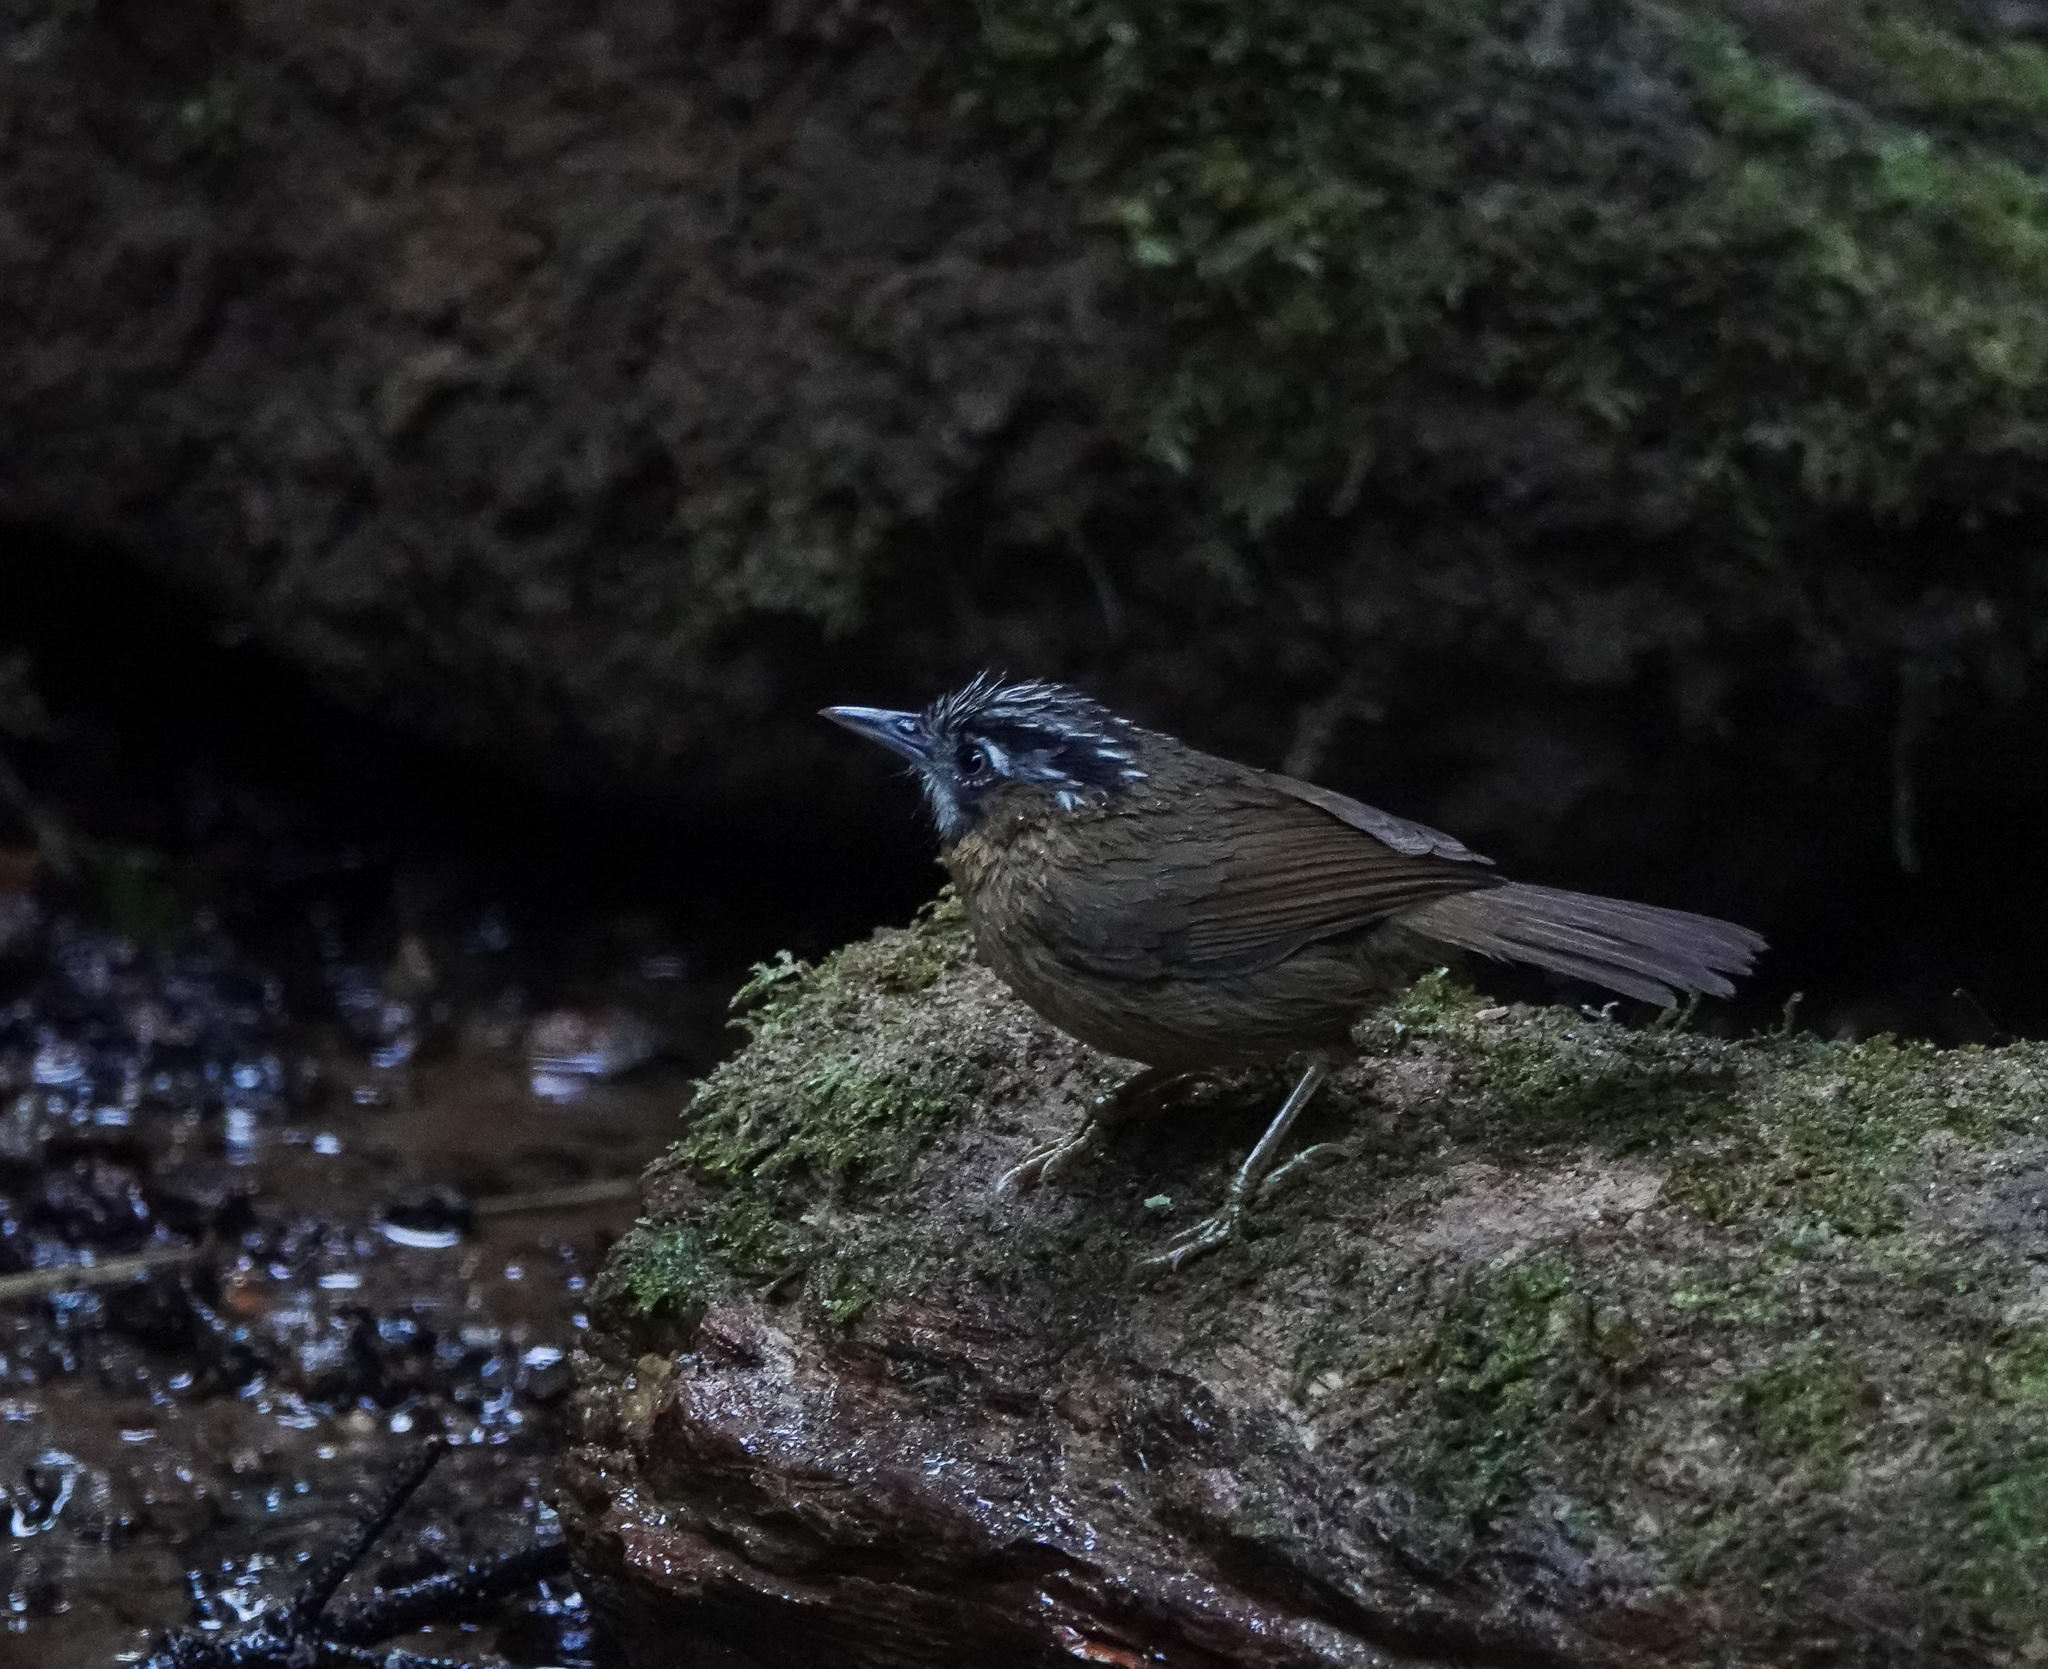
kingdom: Animalia
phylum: Chordata
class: Aves
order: Passeriformes
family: Timaliidae
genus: Stachyris
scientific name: Stachyris nigriceps
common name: Grey-throated babbler
